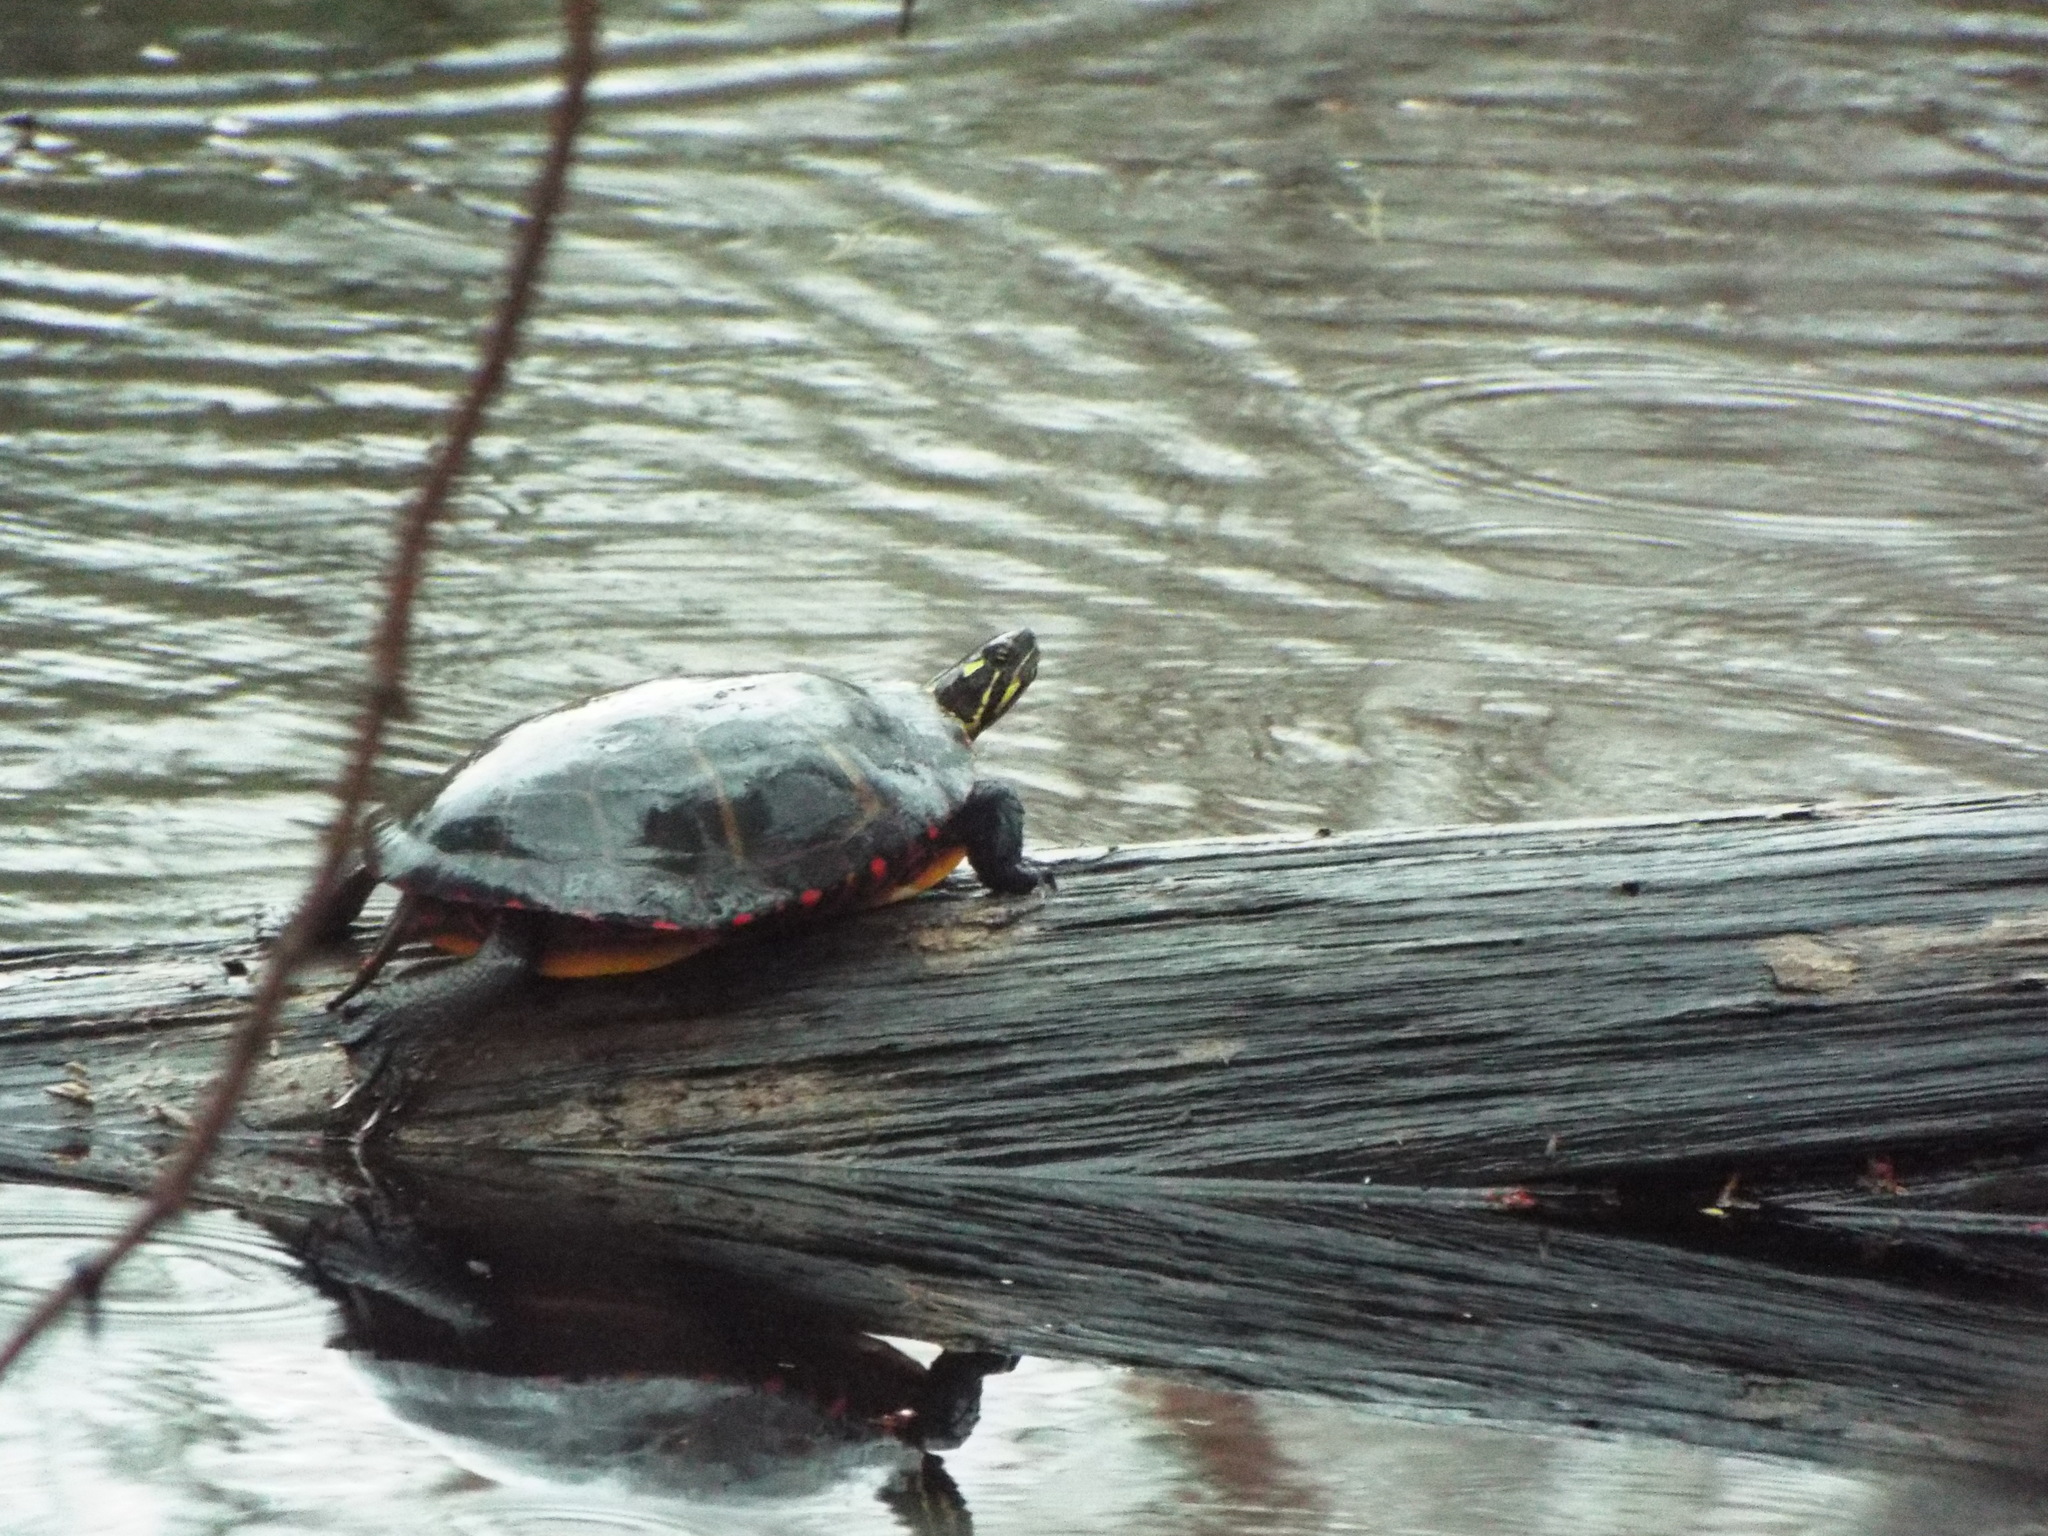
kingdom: Animalia
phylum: Chordata
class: Testudines
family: Emydidae
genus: Chrysemys
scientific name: Chrysemys picta
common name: Painted turtle
